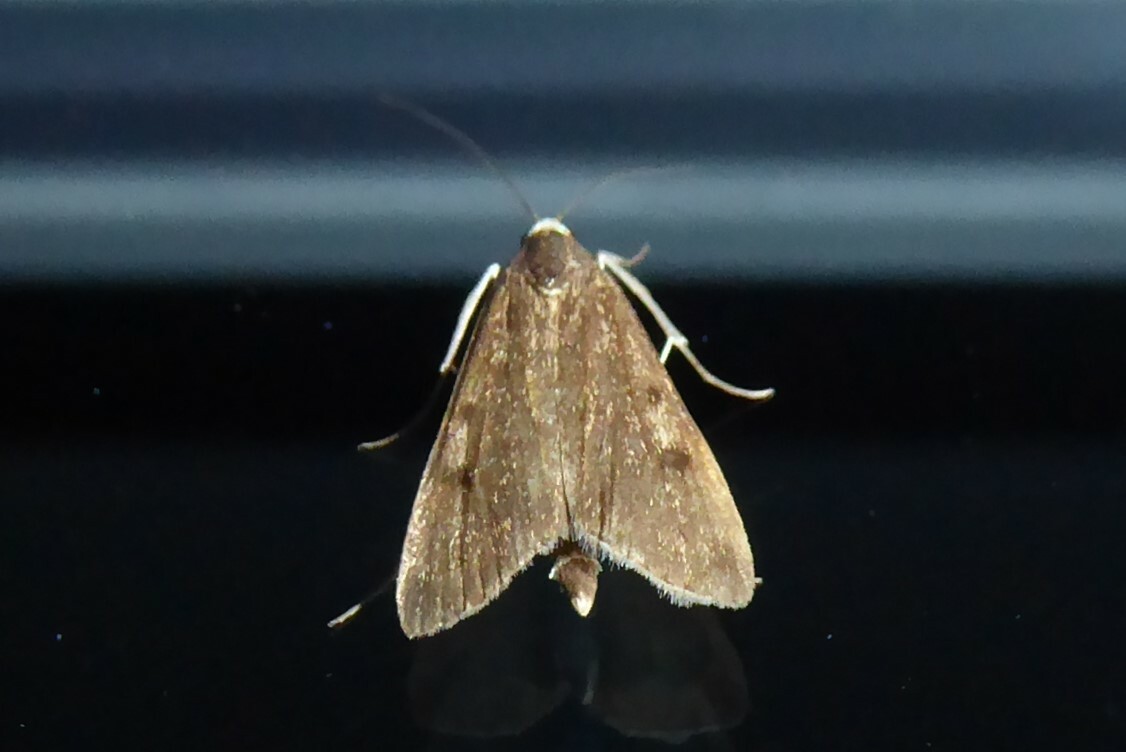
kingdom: Animalia
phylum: Arthropoda
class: Insecta
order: Lepidoptera
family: Crambidae
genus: Achyra
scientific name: Achyra affinitalis
